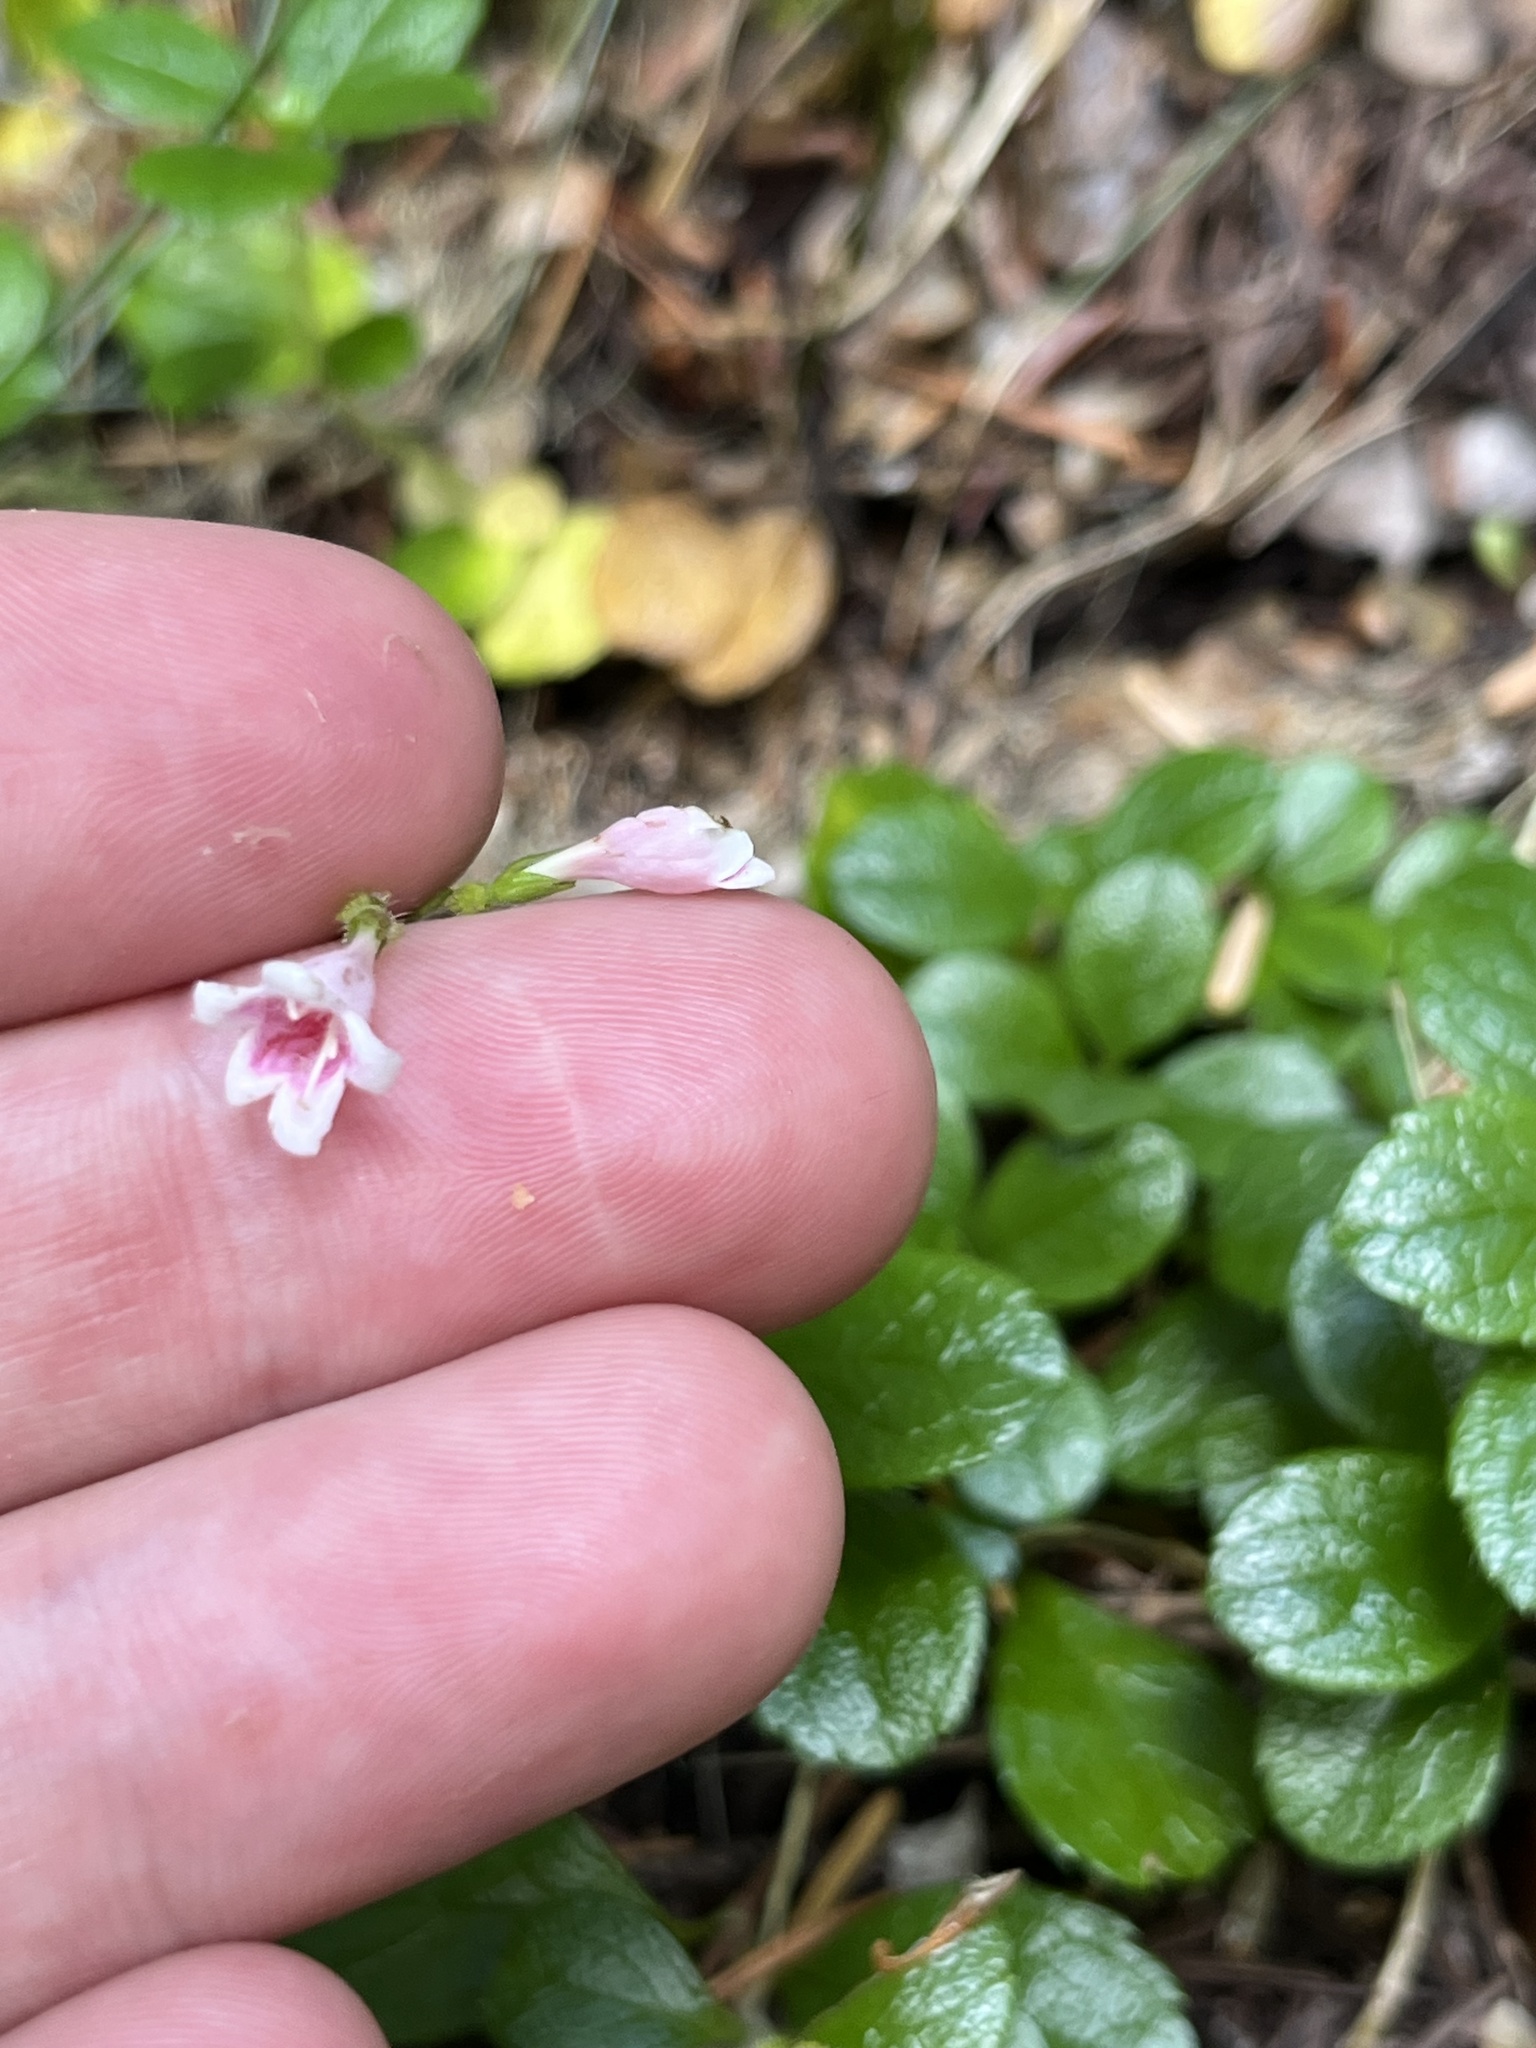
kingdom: Plantae
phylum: Tracheophyta
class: Magnoliopsida
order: Dipsacales
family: Caprifoliaceae
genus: Linnaea
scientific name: Linnaea borealis
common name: Twinflower
